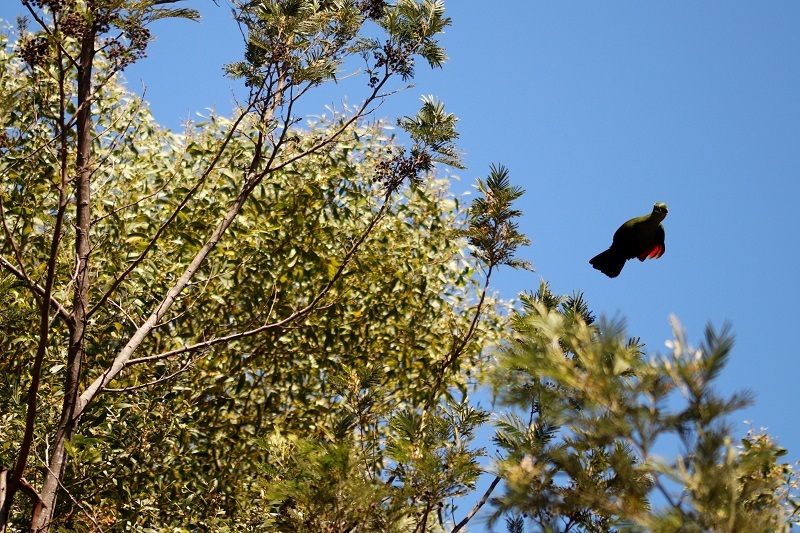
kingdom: Animalia
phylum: Chordata
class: Aves
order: Musophagiformes
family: Musophagidae
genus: Tauraco
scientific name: Tauraco corythaix
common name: Knysna turaco
